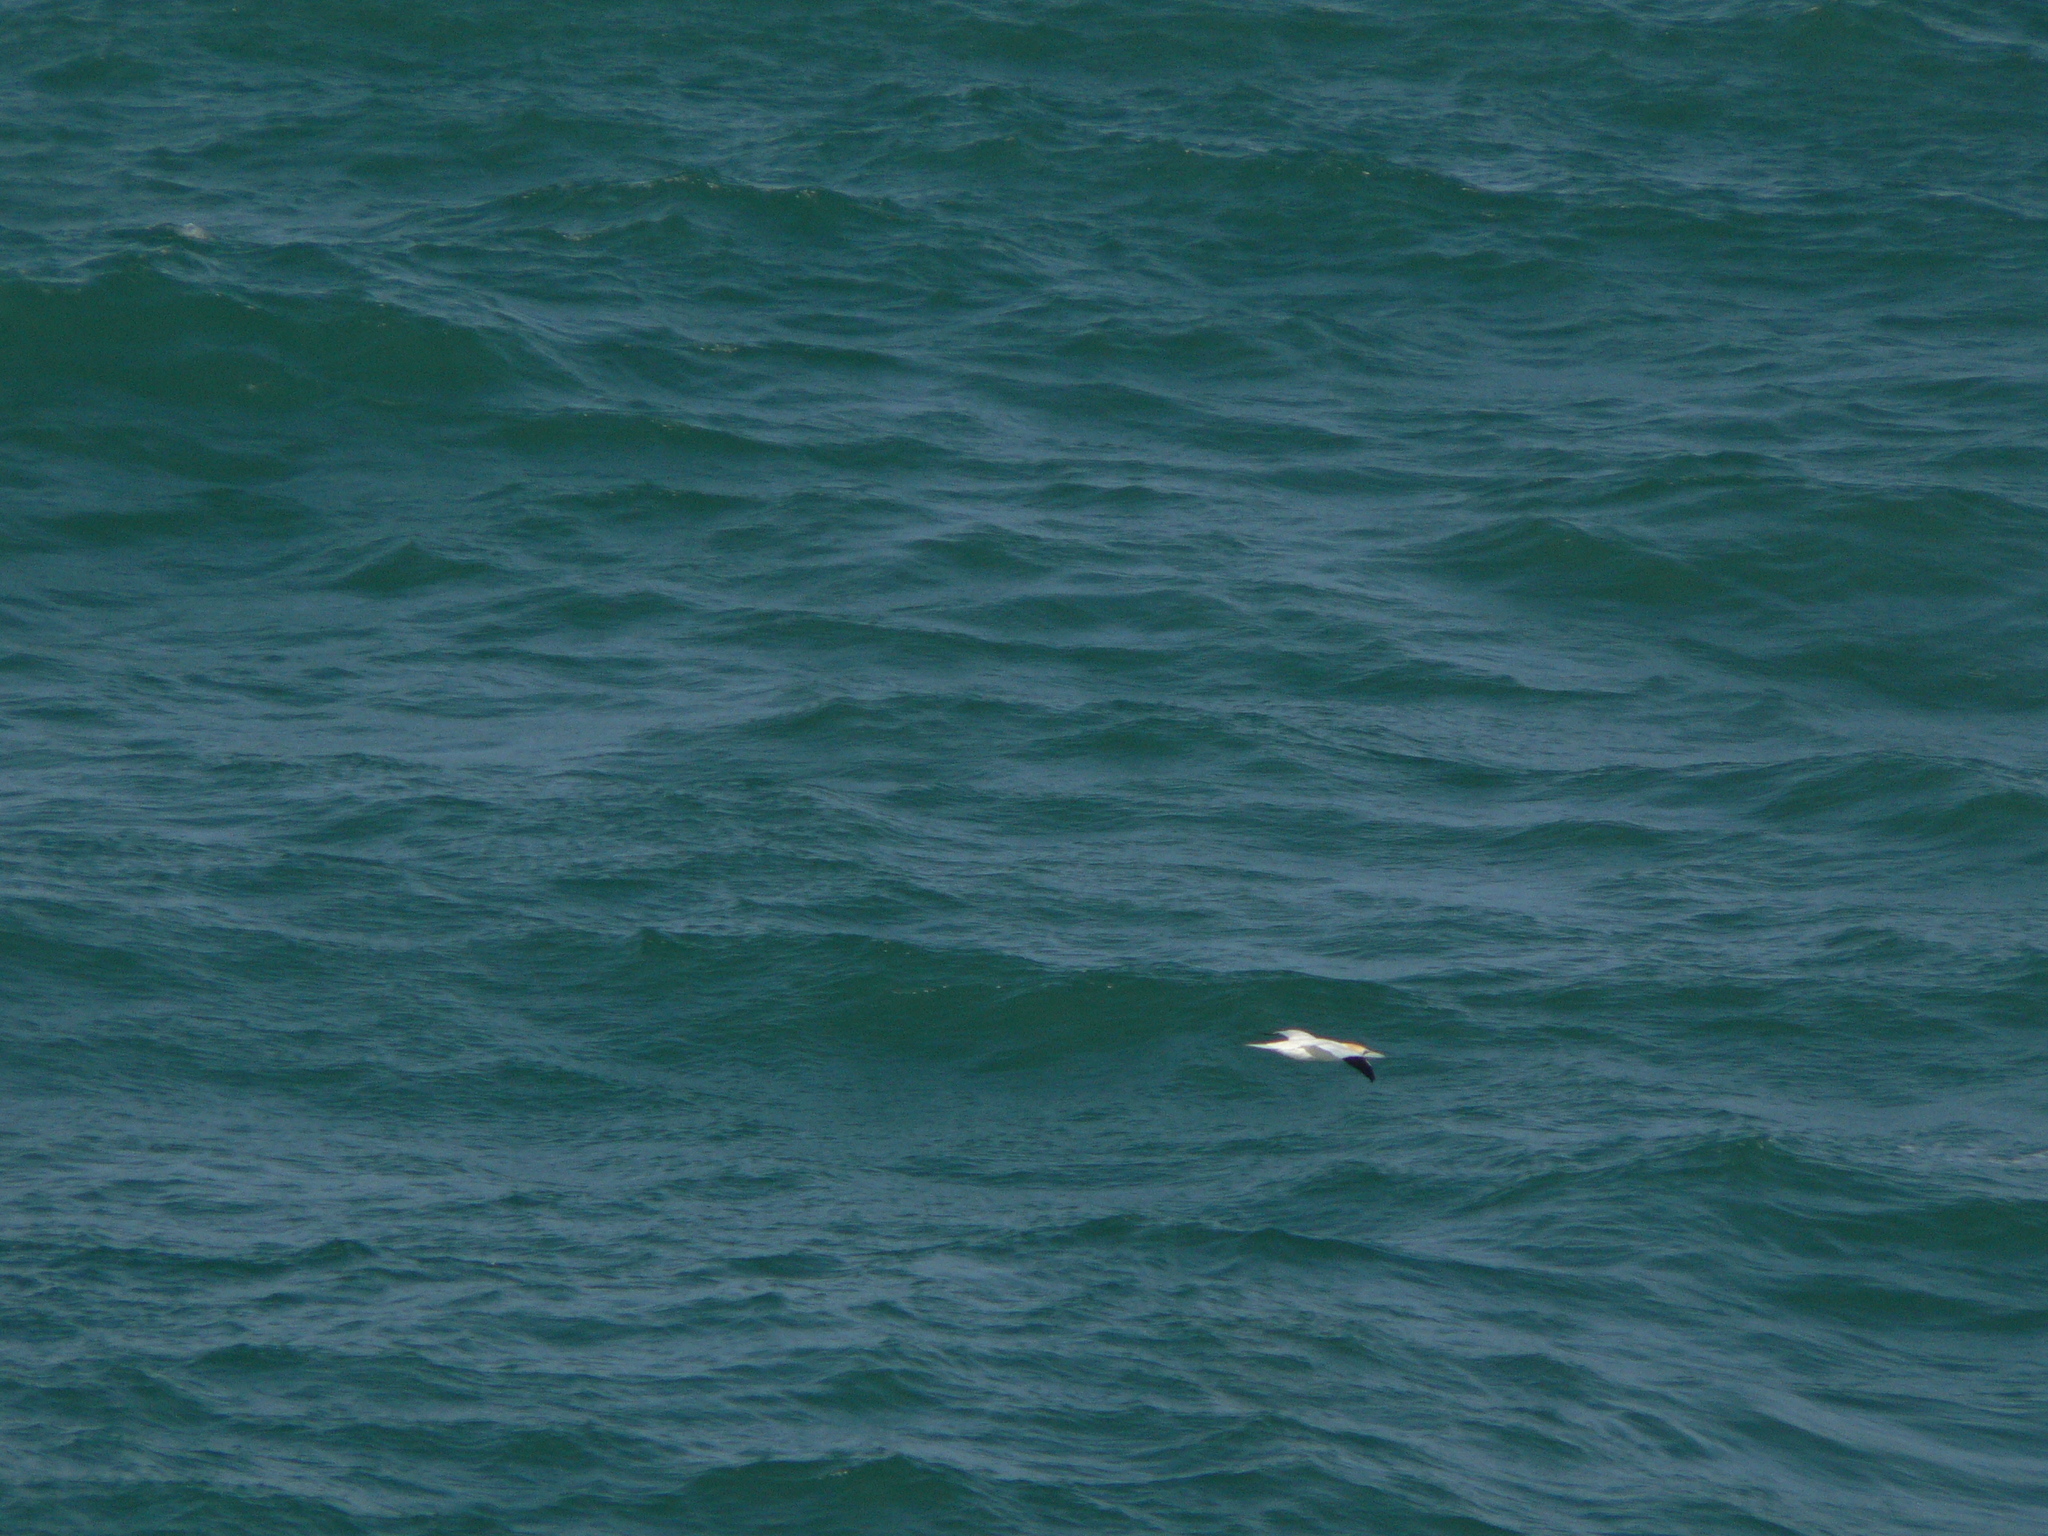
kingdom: Animalia
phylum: Chordata
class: Aves
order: Suliformes
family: Sulidae
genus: Morus
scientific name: Morus bassanus
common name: Northern gannet
